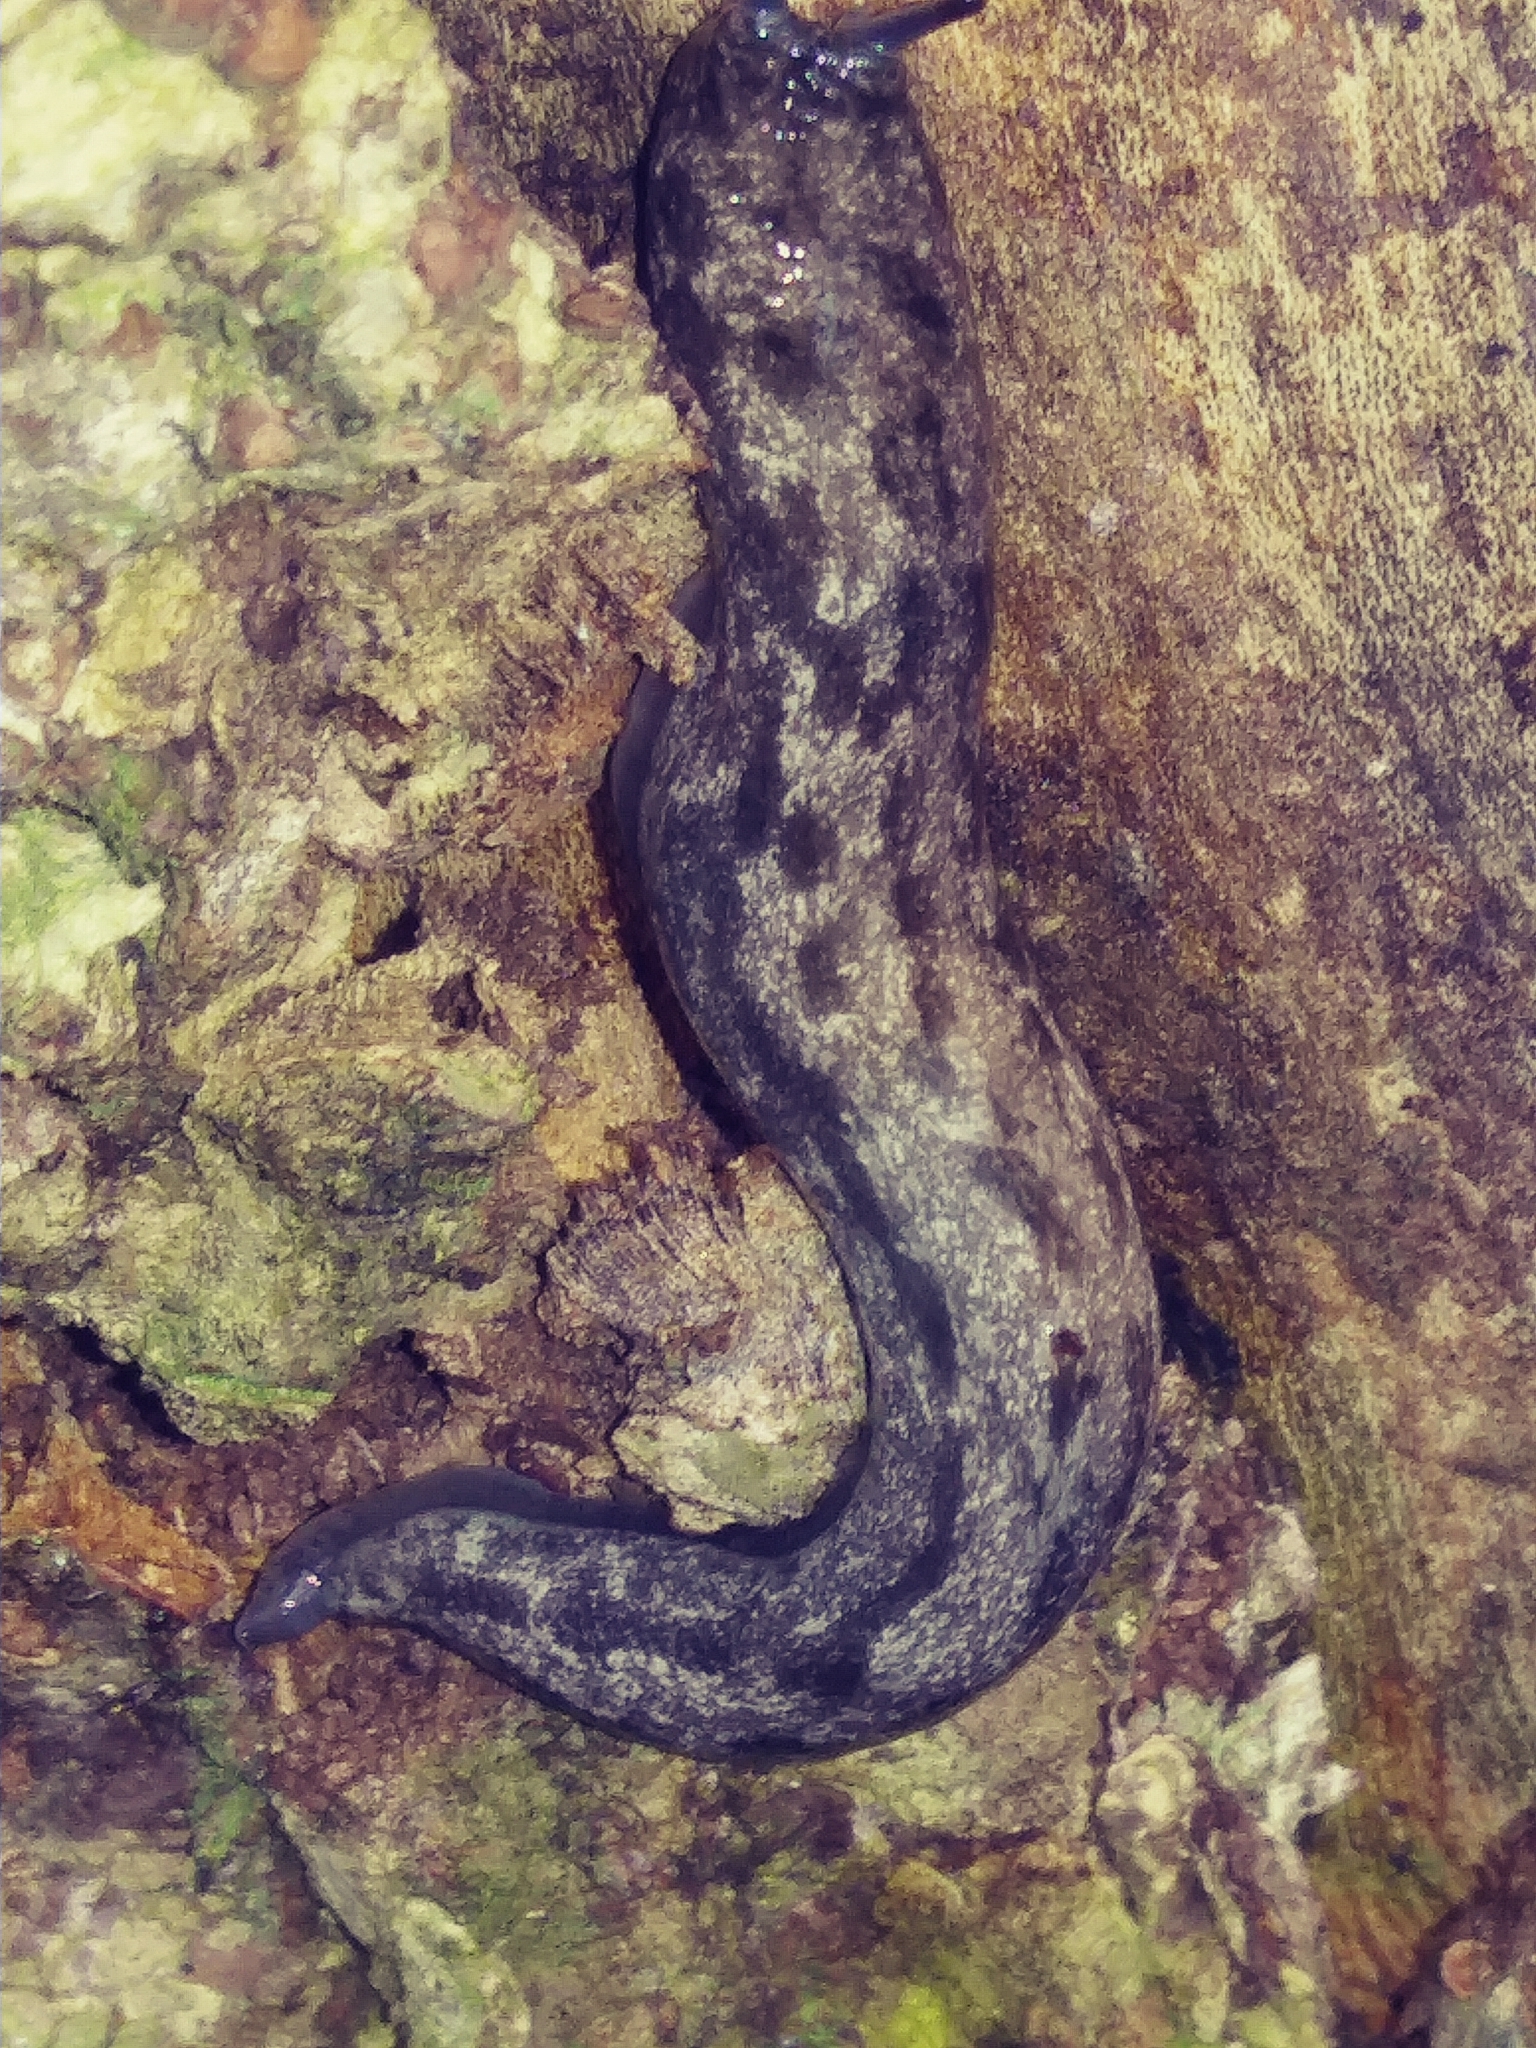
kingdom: Animalia
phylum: Mollusca
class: Gastropoda
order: Stylommatophora
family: Philomycidae
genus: Megapallifera
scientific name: Megapallifera mutabilis
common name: Changeable mantleslug
